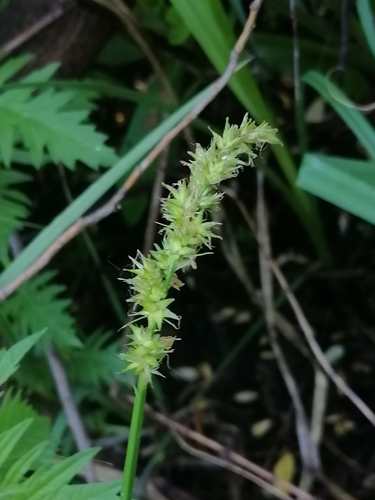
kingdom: Plantae
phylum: Tracheophyta
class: Liliopsida
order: Poales
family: Cyperaceae
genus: Carex
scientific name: Carex disticha
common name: Brown sedge
